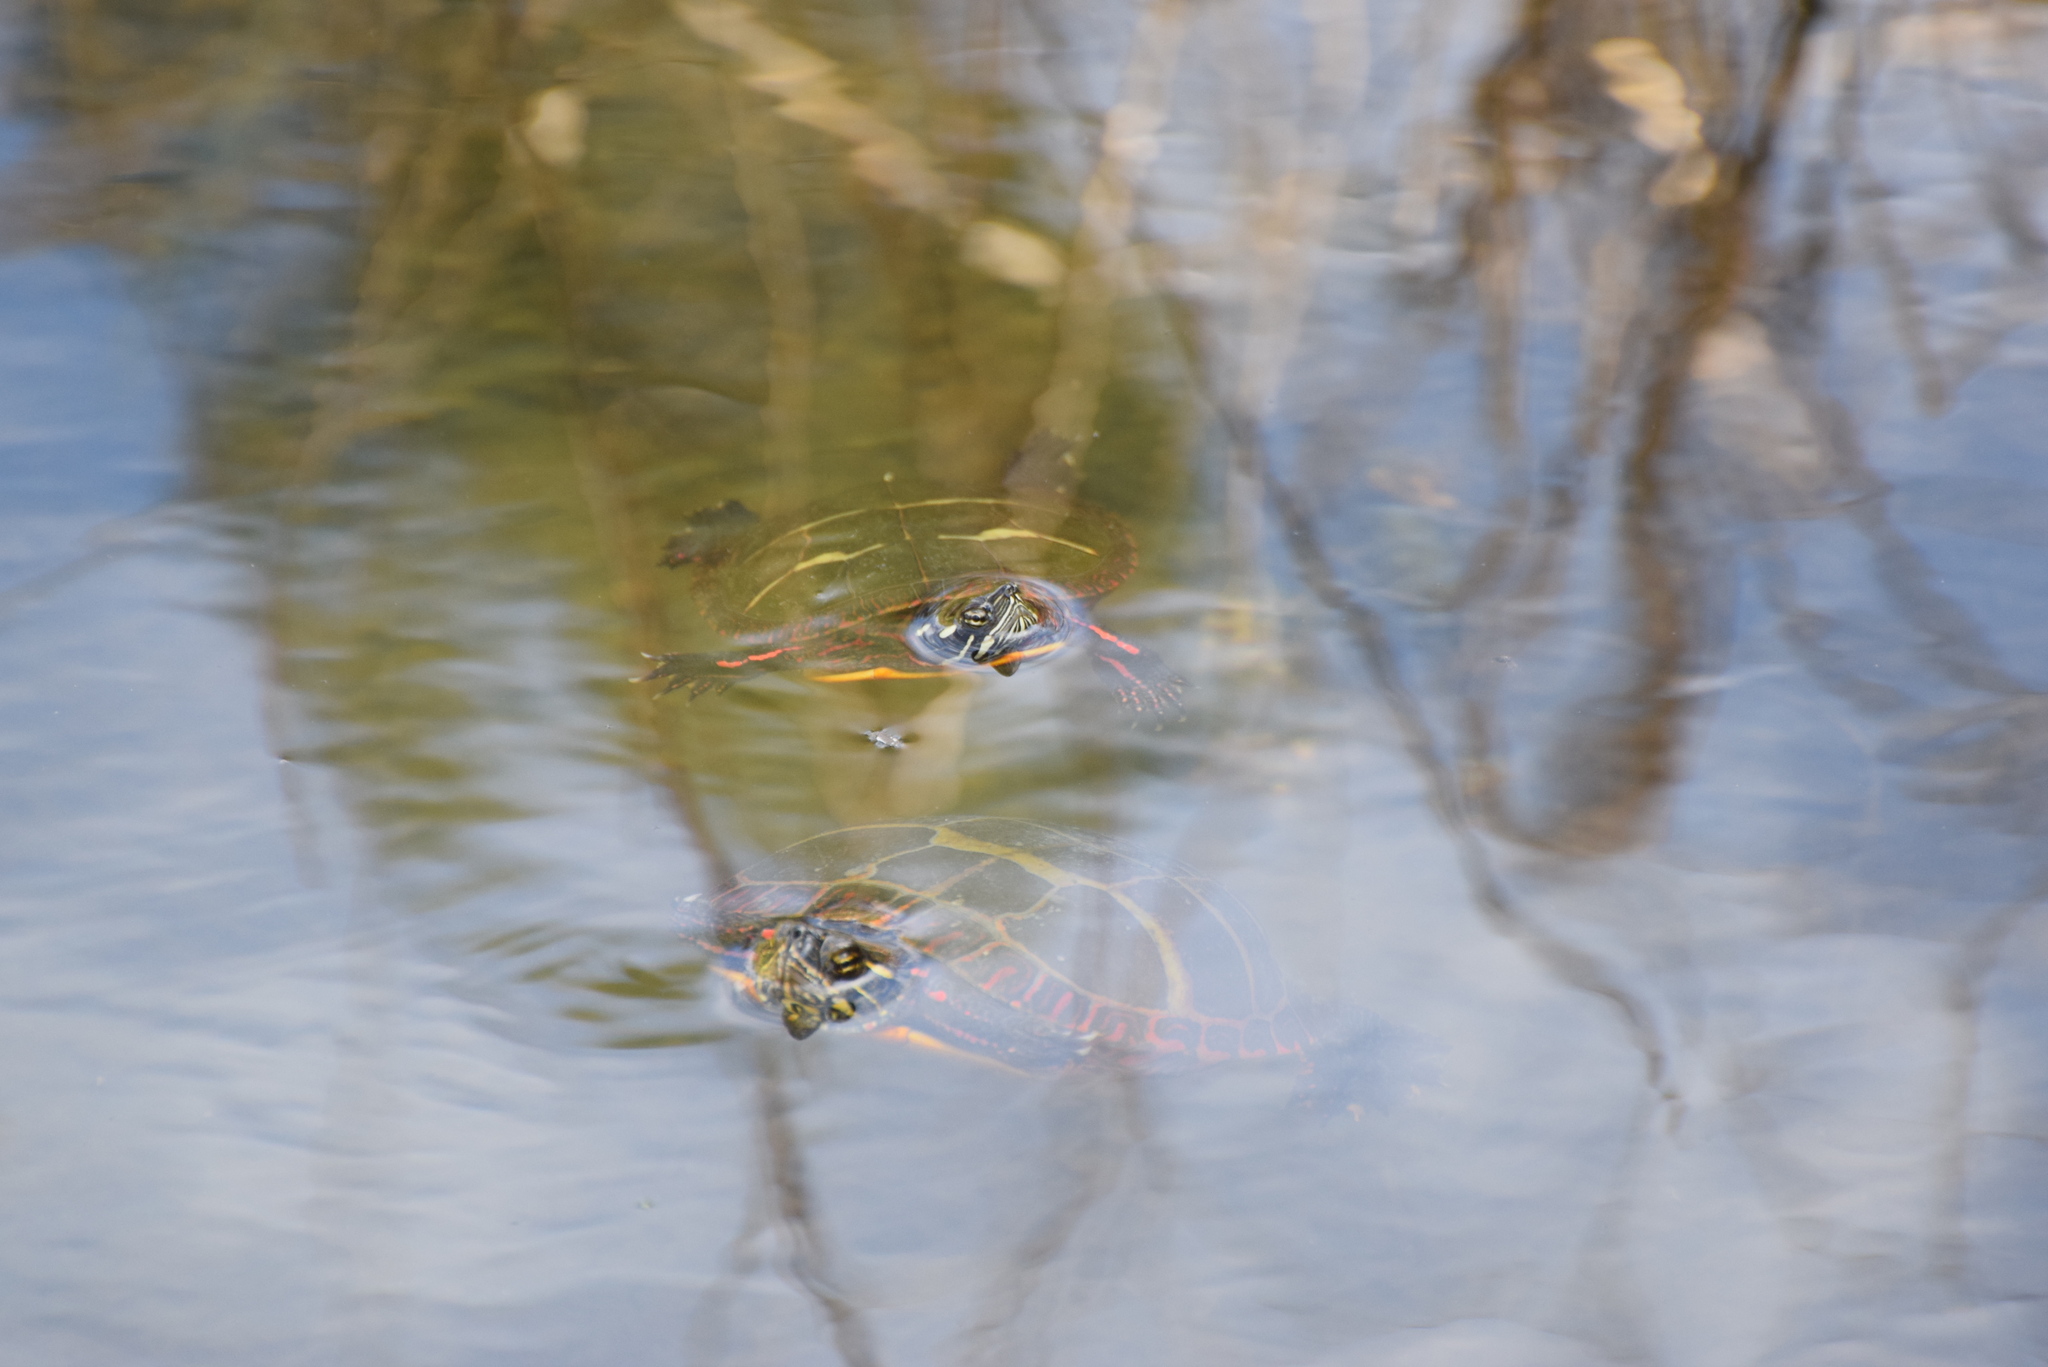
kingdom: Animalia
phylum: Chordata
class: Testudines
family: Emydidae
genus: Chrysemys
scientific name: Chrysemys picta
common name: Painted turtle
